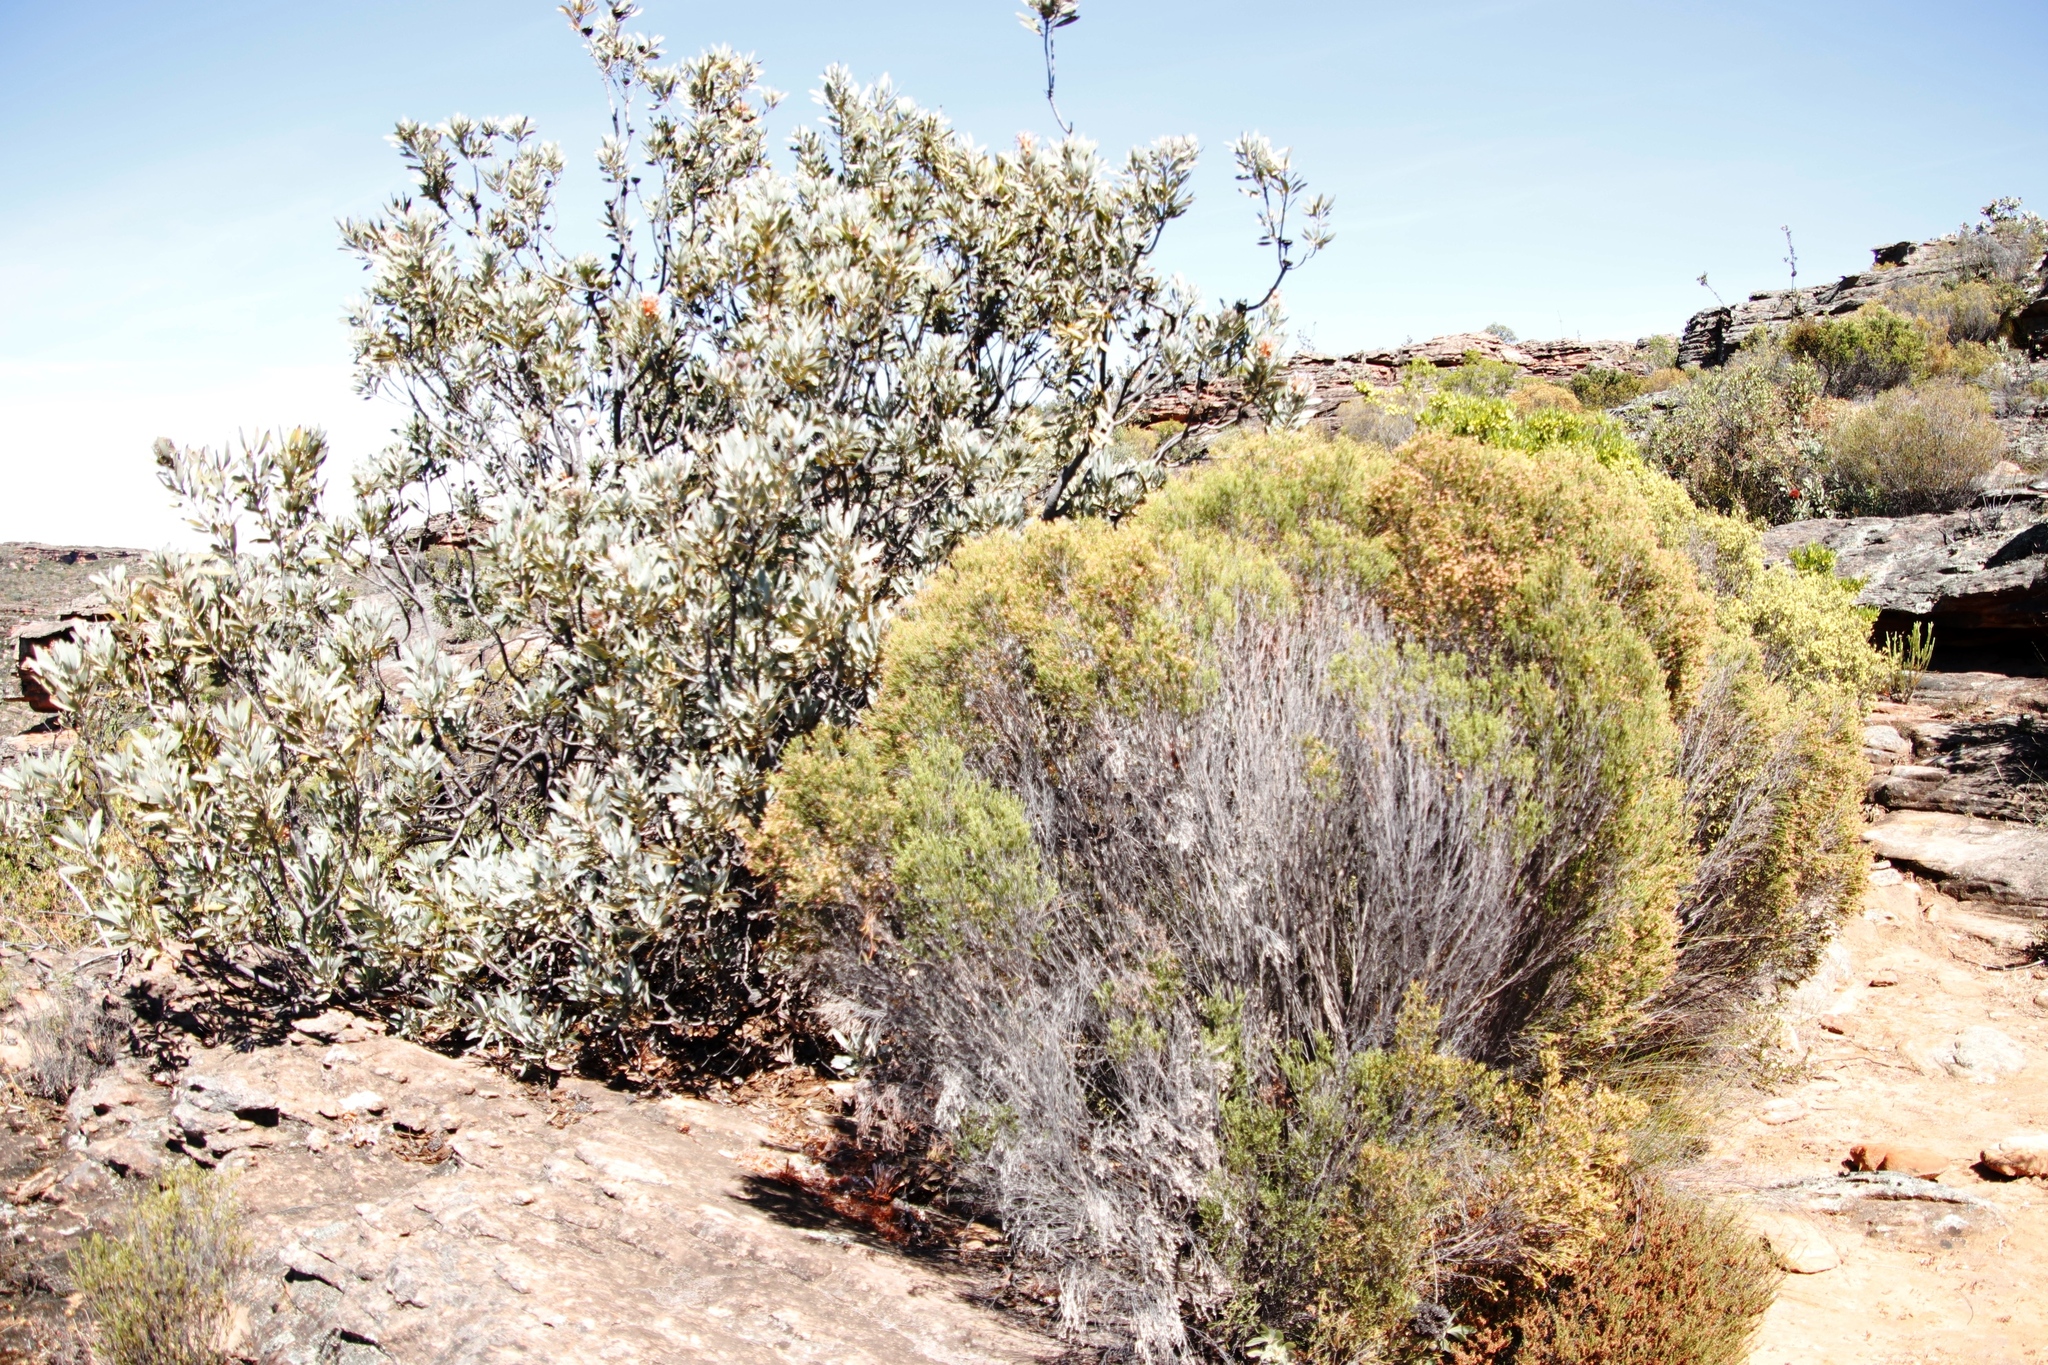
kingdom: Plantae
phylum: Tracheophyta
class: Magnoliopsida
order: Proteales
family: Proteaceae
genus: Protea
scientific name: Protea laurifolia
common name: Grey-leaf sugarbsh
